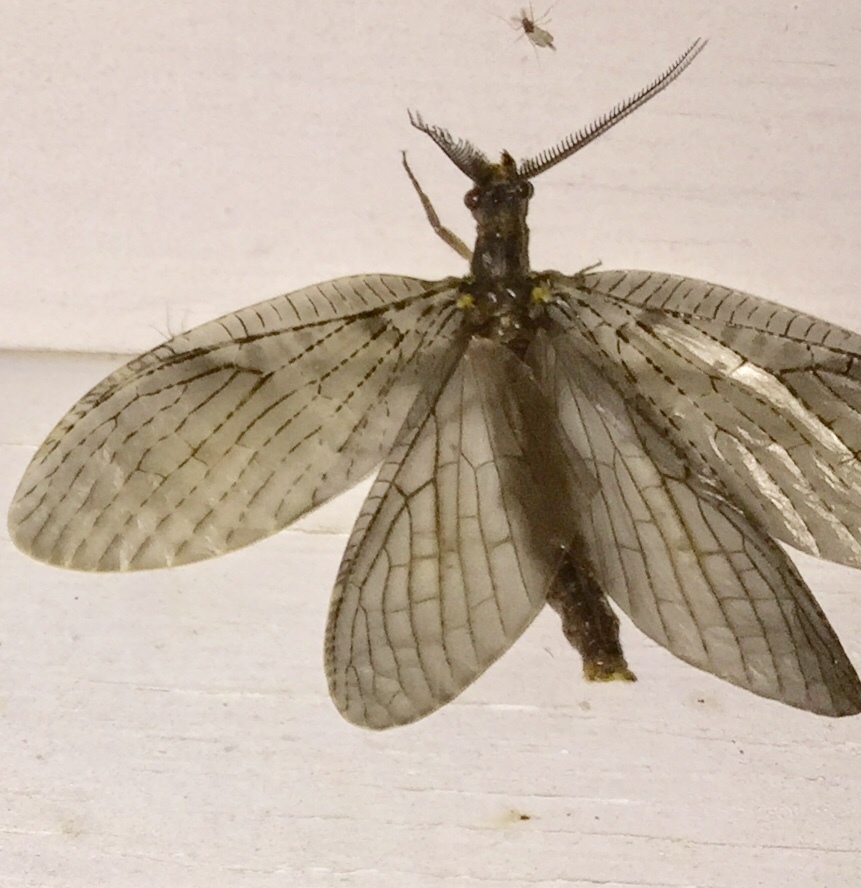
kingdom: Animalia
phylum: Arthropoda
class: Insecta
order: Megaloptera
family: Corydalidae
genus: Chauliodes
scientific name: Chauliodes pectinicornis
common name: Summer fishfly
